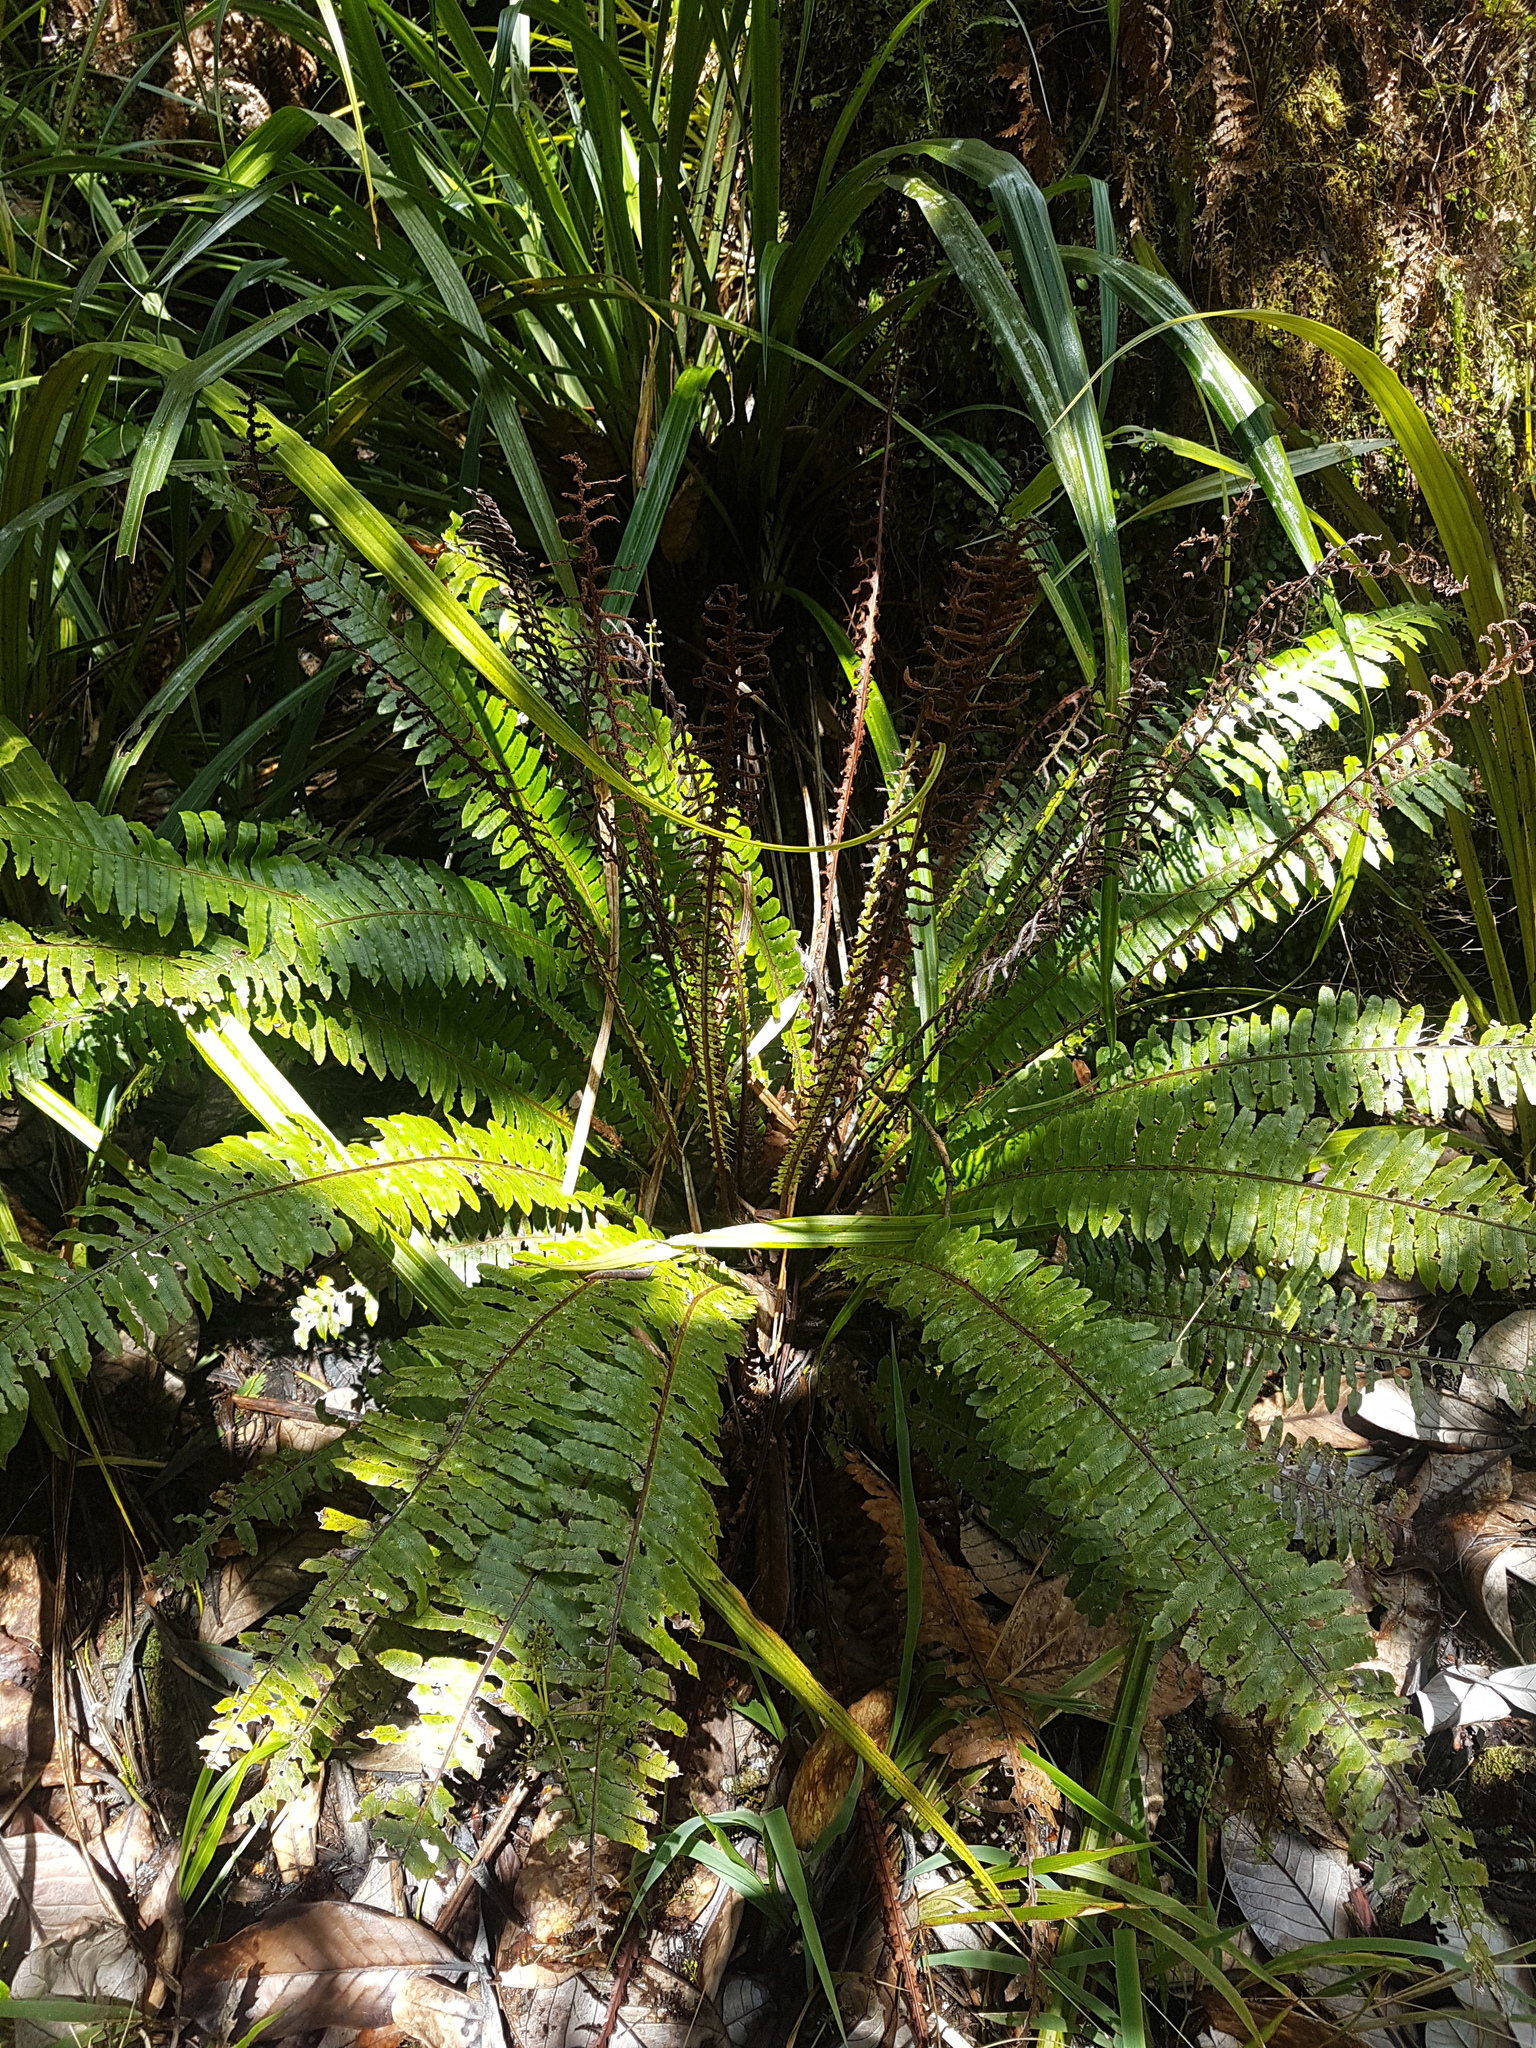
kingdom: Plantae
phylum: Tracheophyta
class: Polypodiopsida
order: Polypodiales
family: Blechnaceae
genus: Lomaria
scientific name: Lomaria discolor
